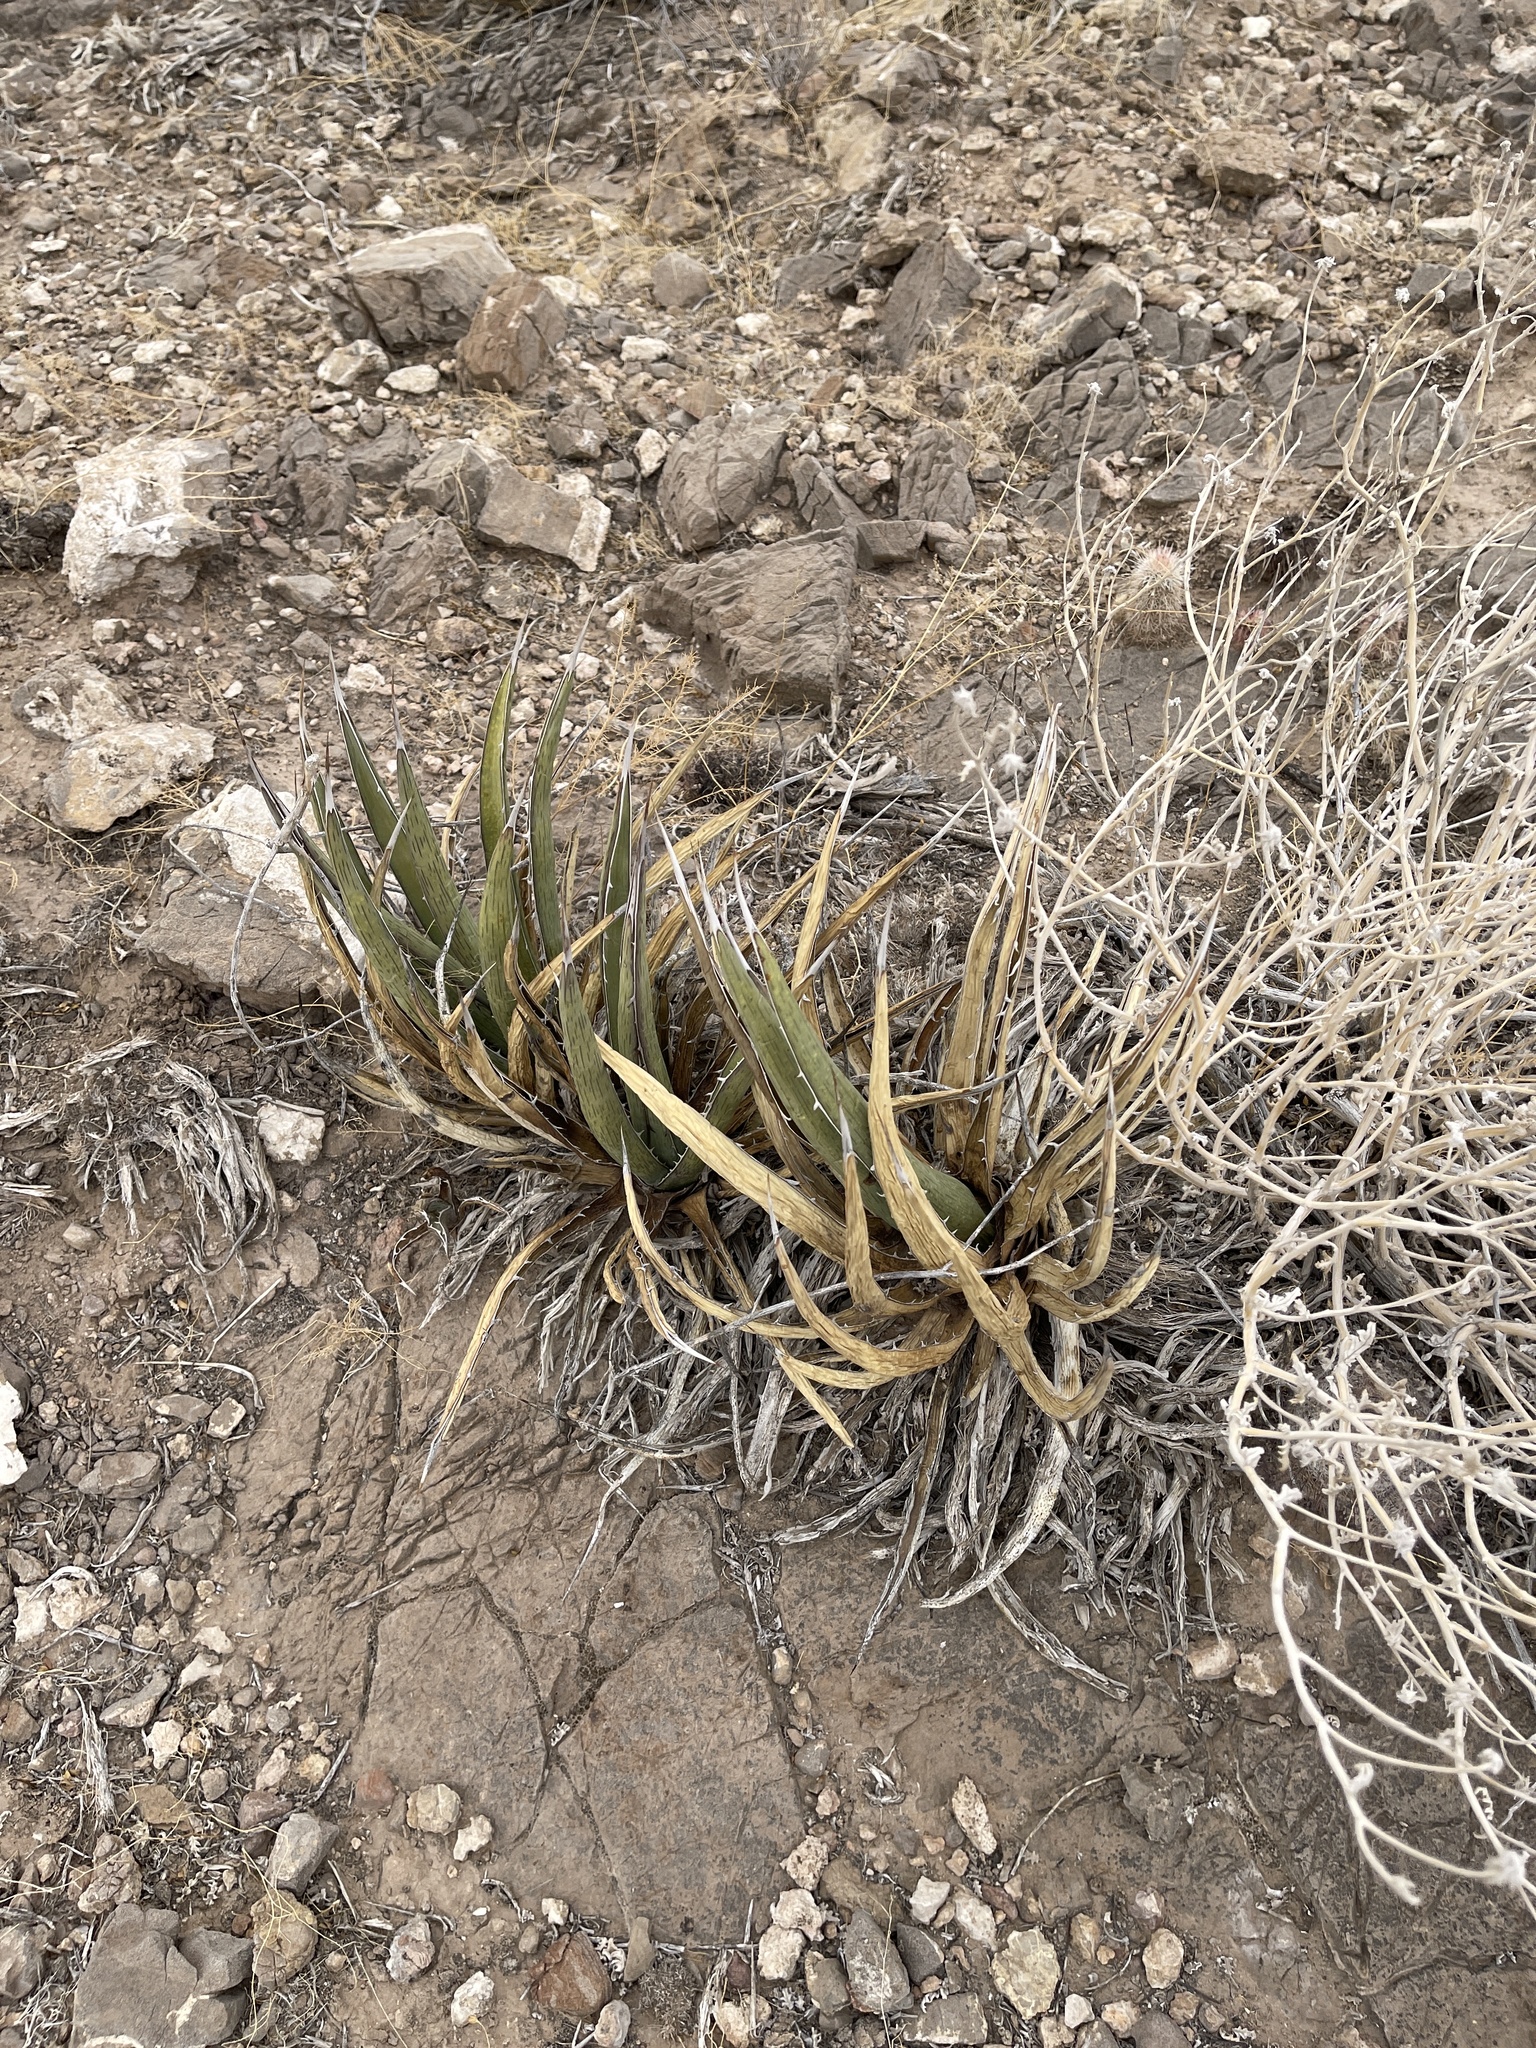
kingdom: Plantae
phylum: Tracheophyta
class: Liliopsida
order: Asparagales
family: Asparagaceae
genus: Agave
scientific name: Agave lechuguilla
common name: Lecheguilla agave
